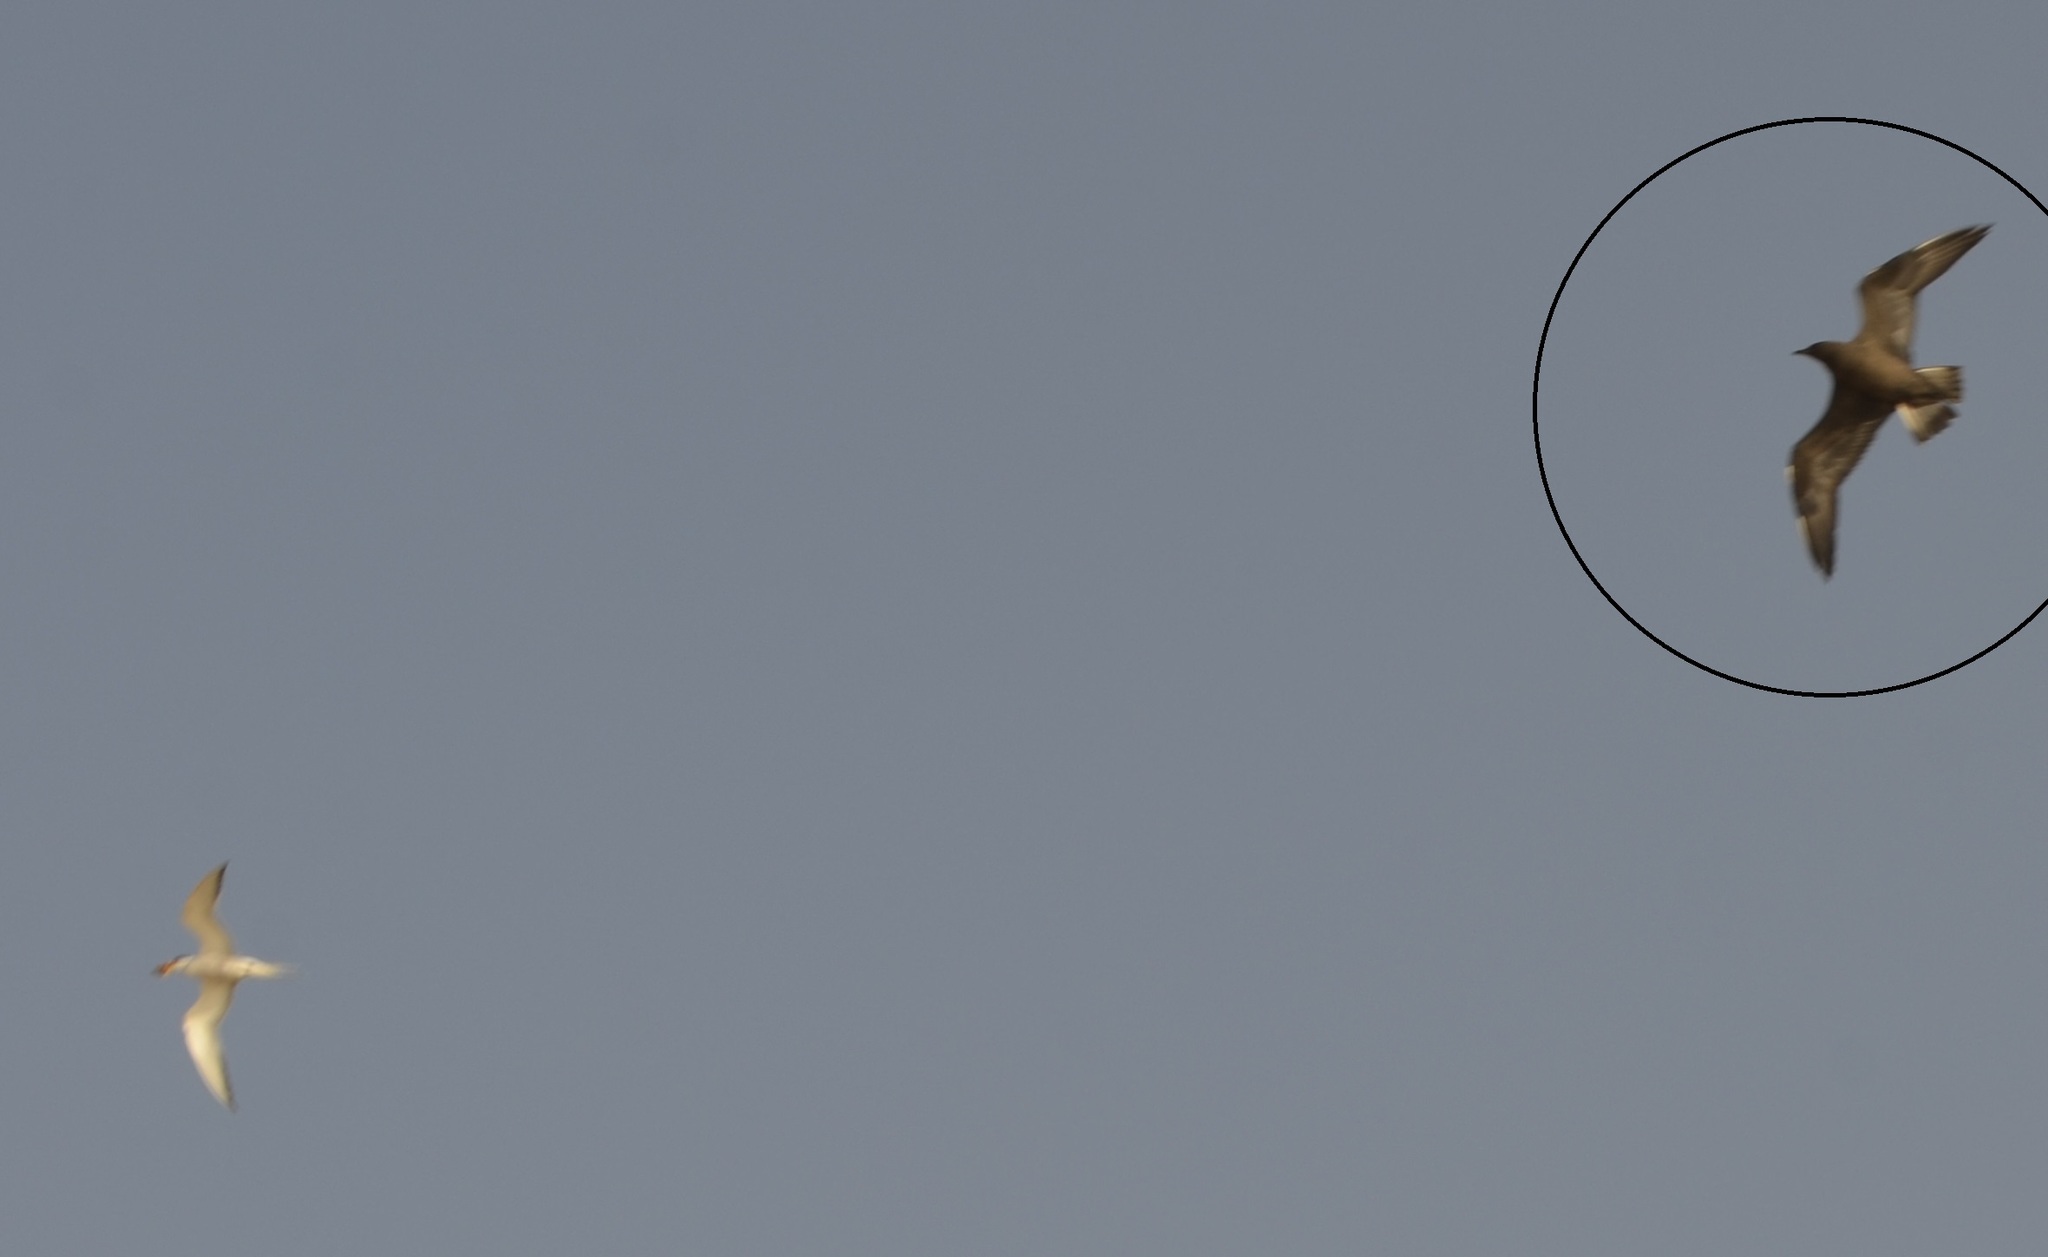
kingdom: Animalia
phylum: Chordata
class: Aves
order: Charadriiformes
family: Stercorariidae
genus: Stercorarius
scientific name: Stercorarius parasiticus
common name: Parasitic jaeger
